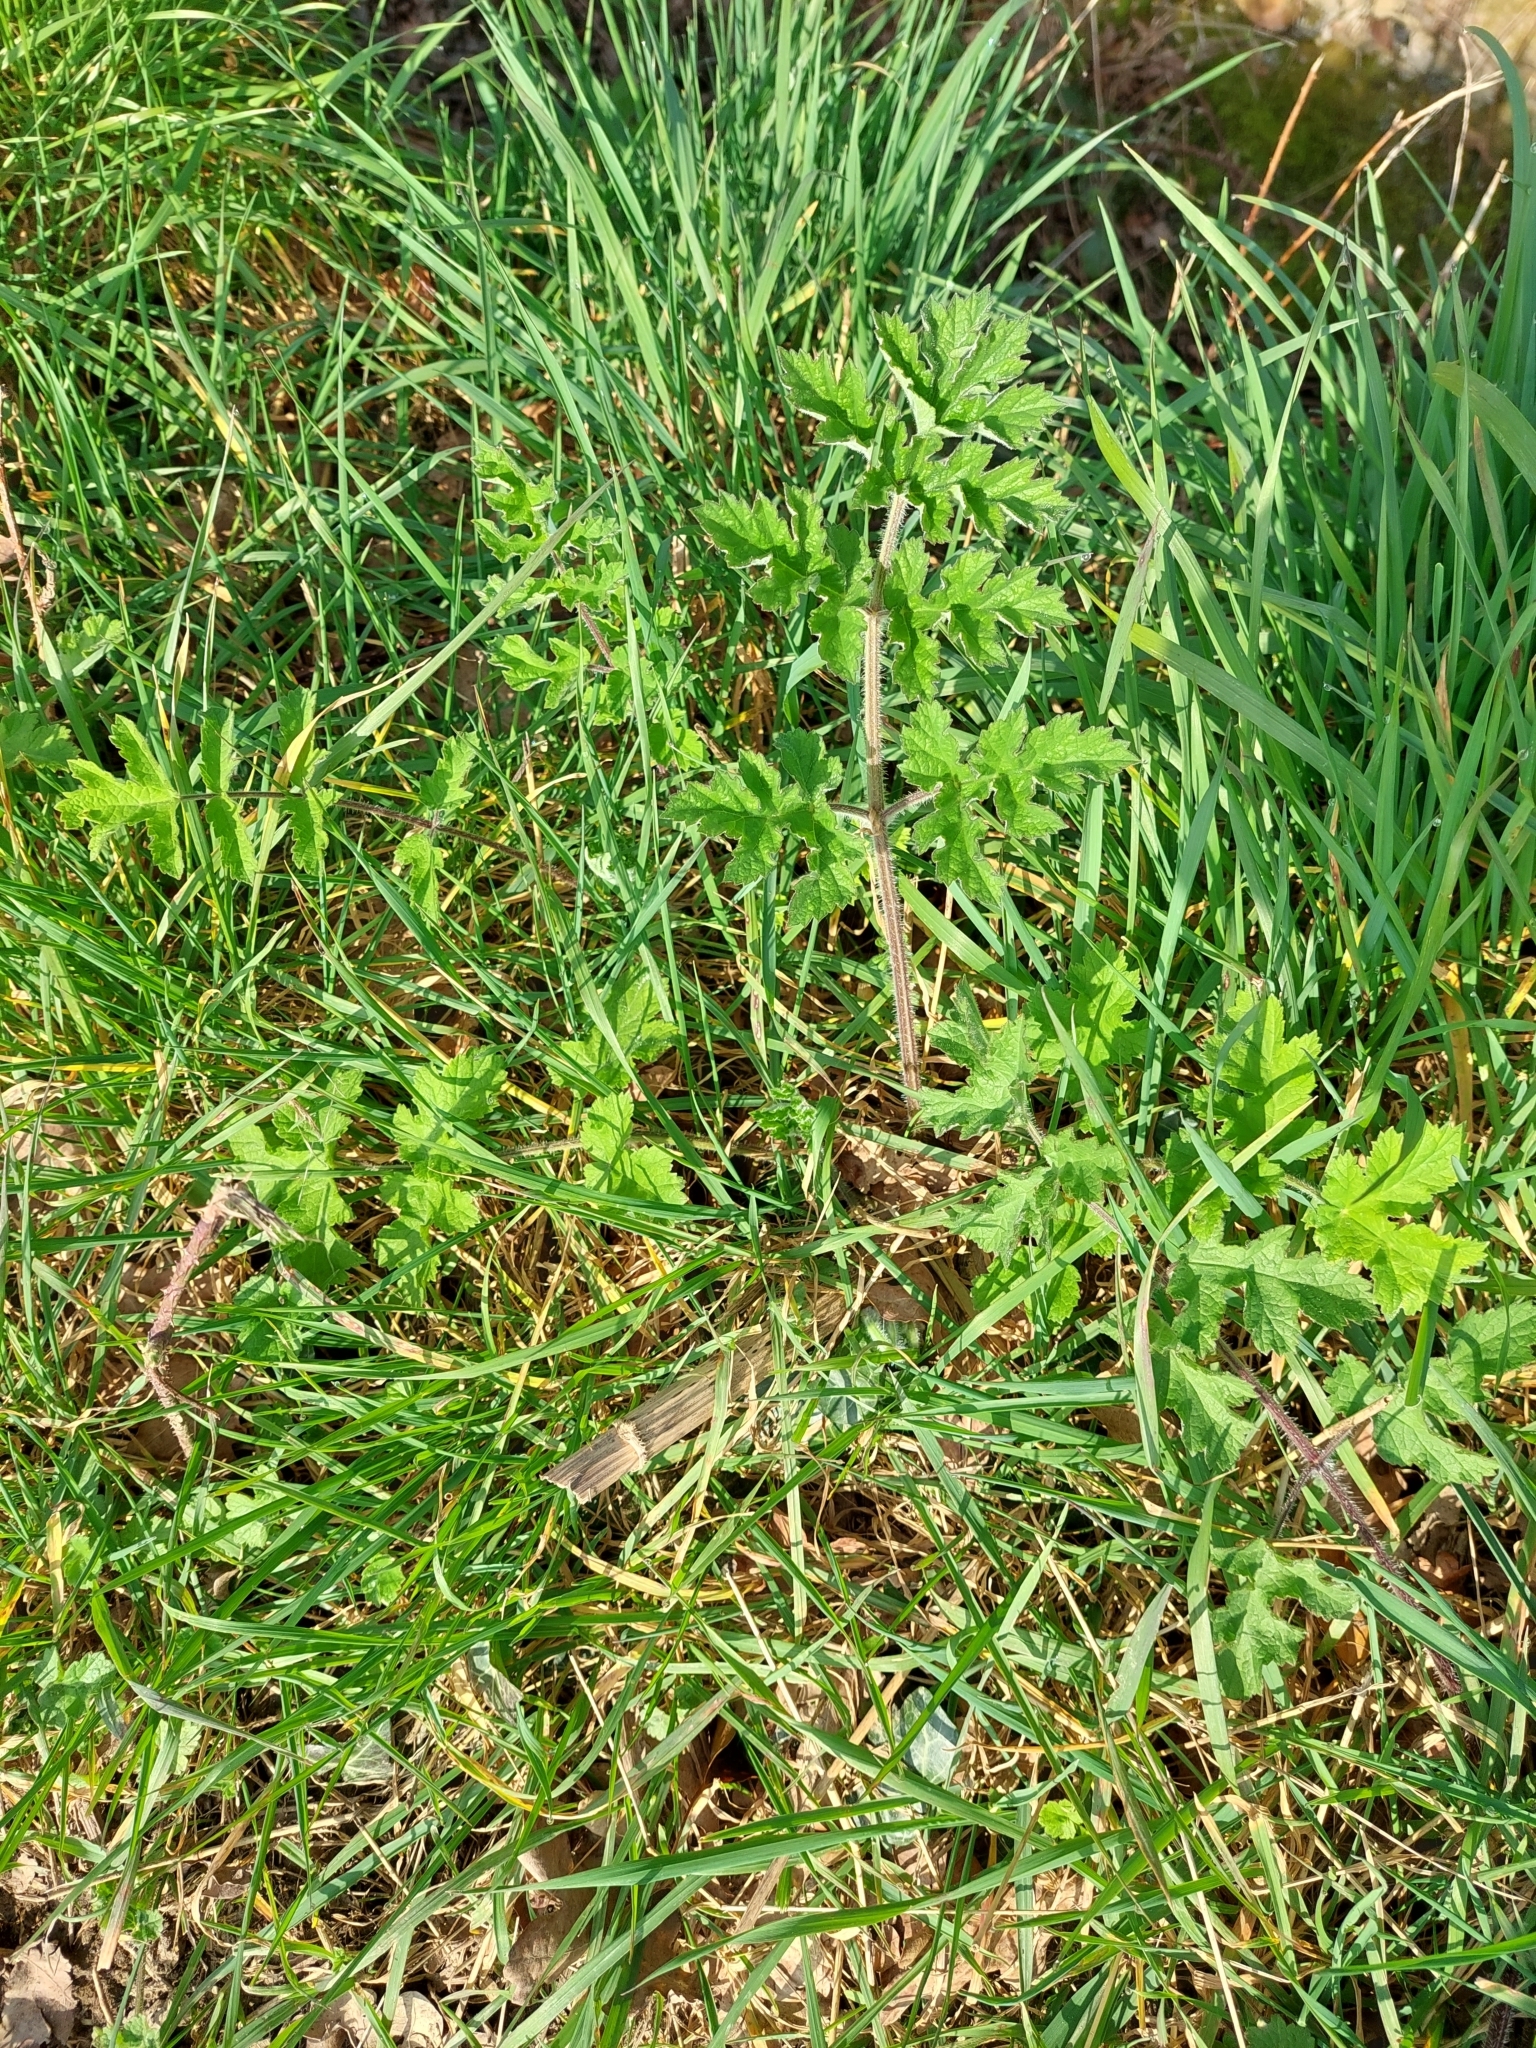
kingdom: Plantae
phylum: Tracheophyta
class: Magnoliopsida
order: Apiales
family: Apiaceae
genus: Heracleum
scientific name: Heracleum sphondylium
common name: Hogweed
